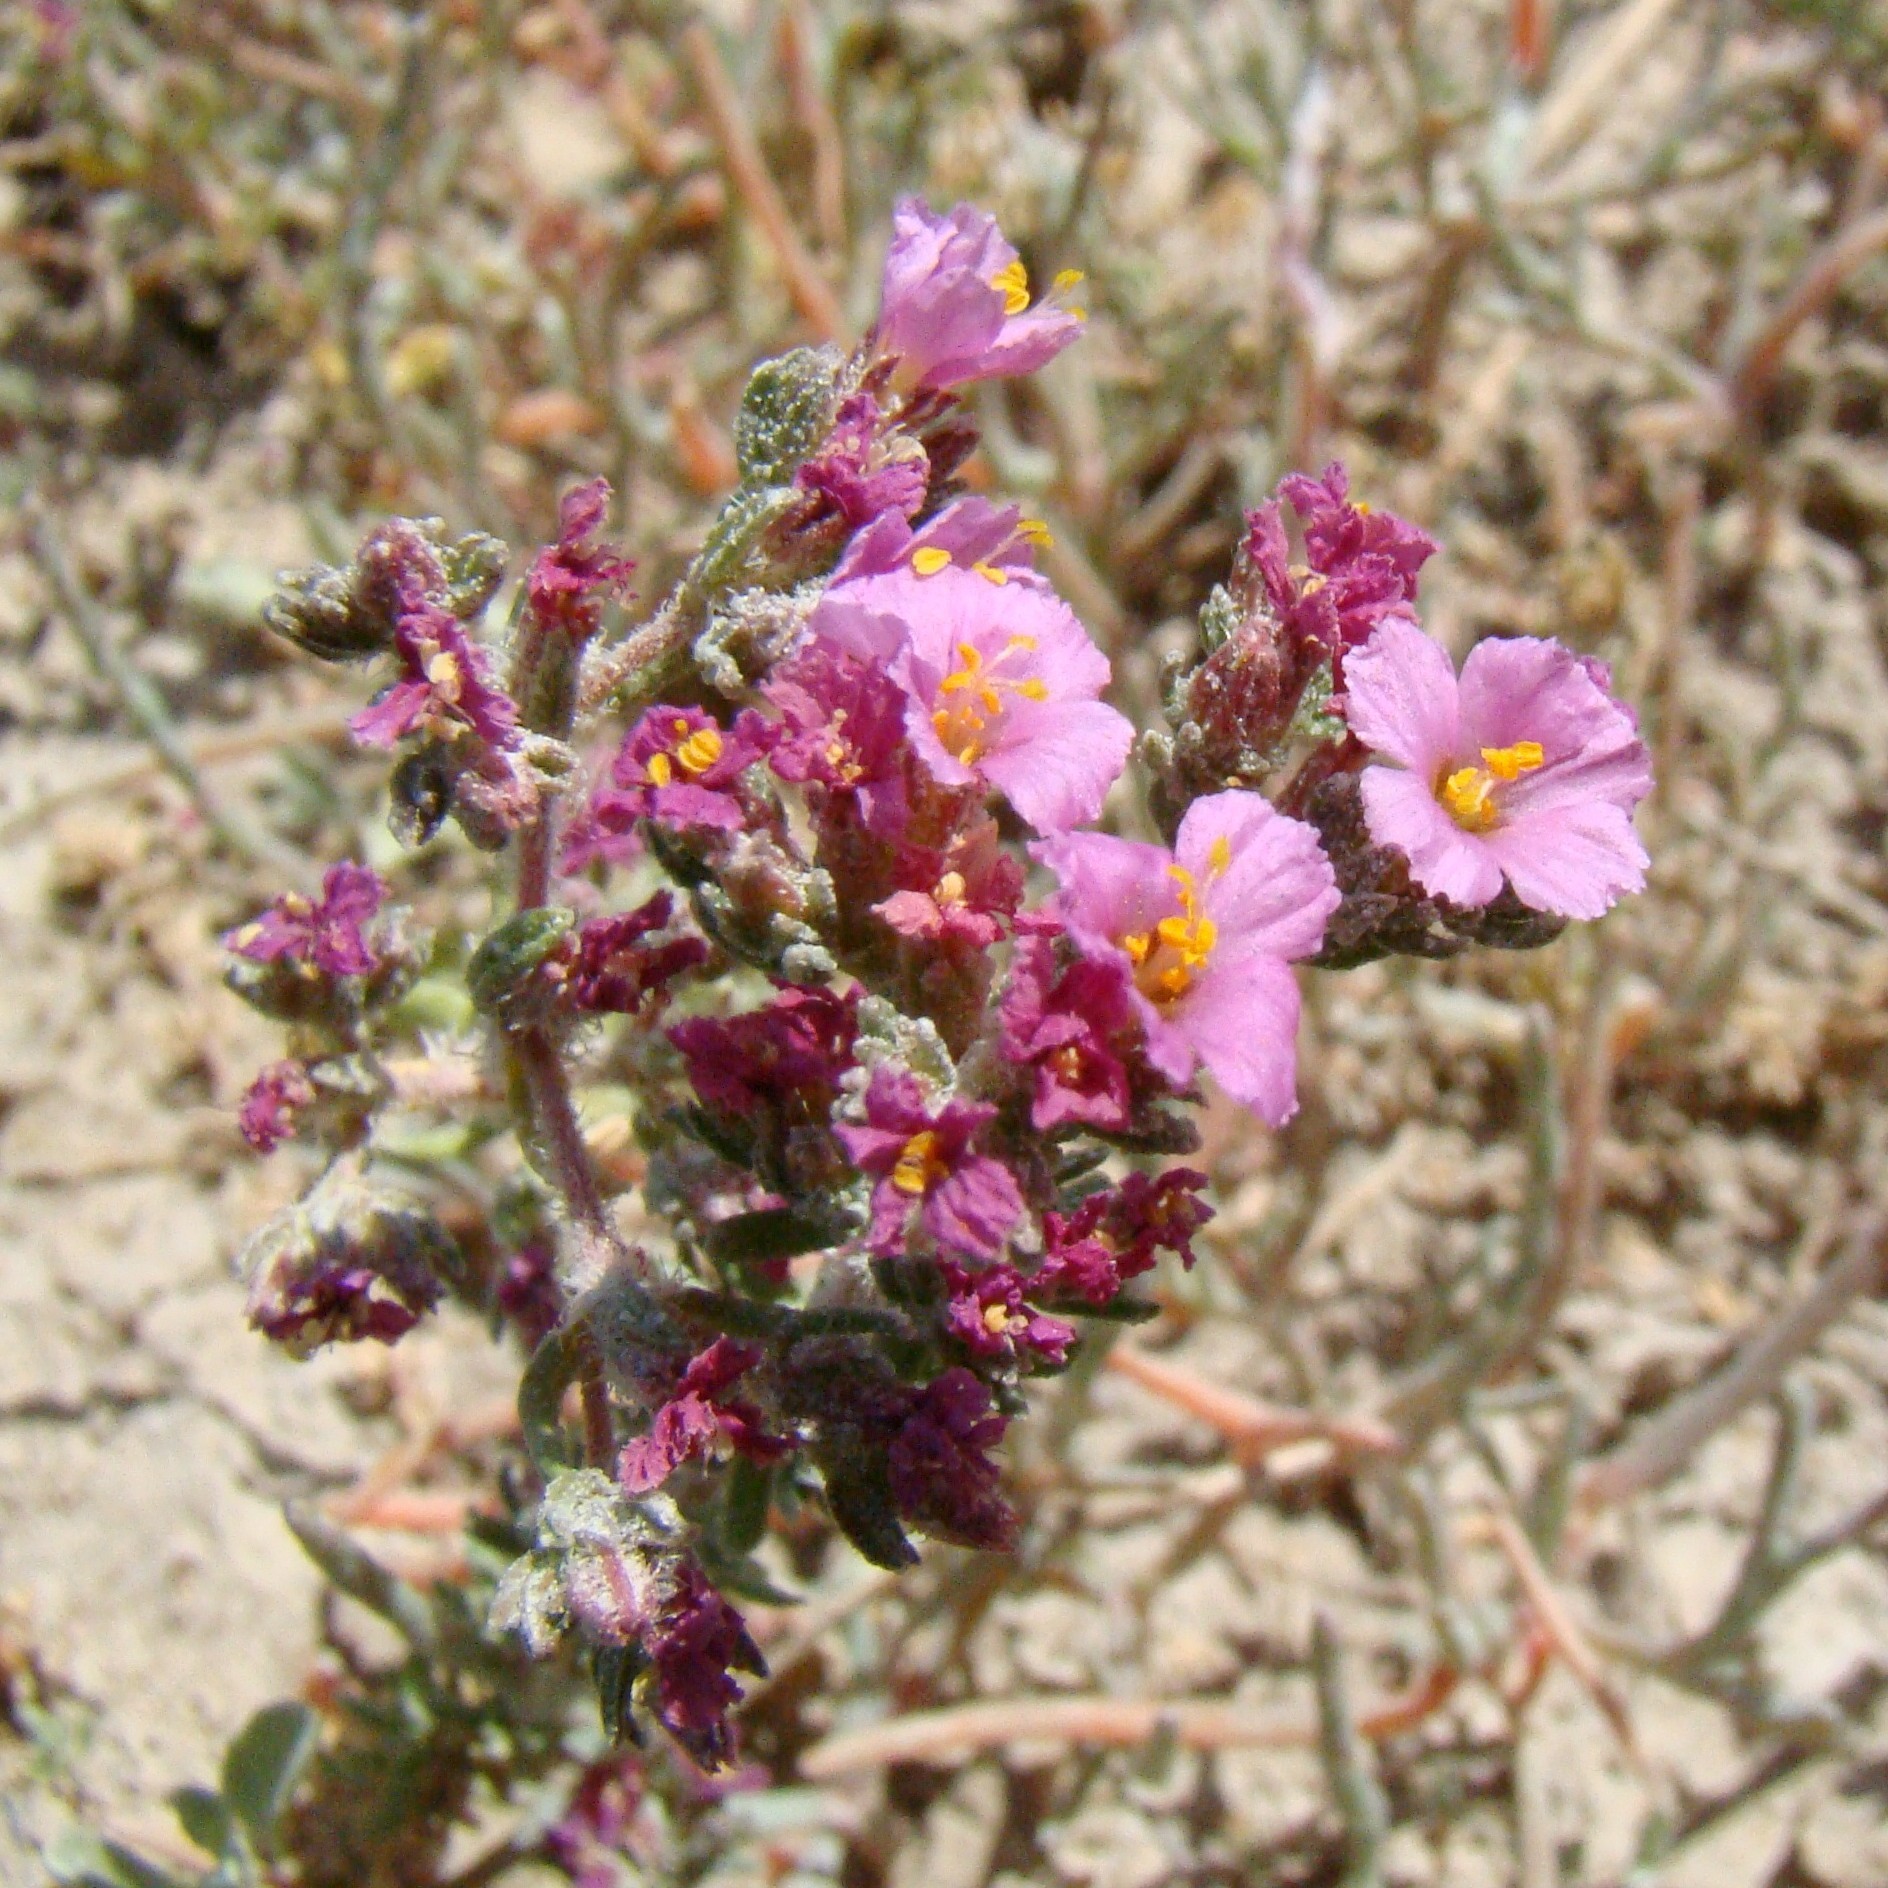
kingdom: Plantae
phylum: Tracheophyta
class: Magnoliopsida
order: Caryophyllales
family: Frankeniaceae
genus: Frankenia
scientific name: Frankenia hirsuta
